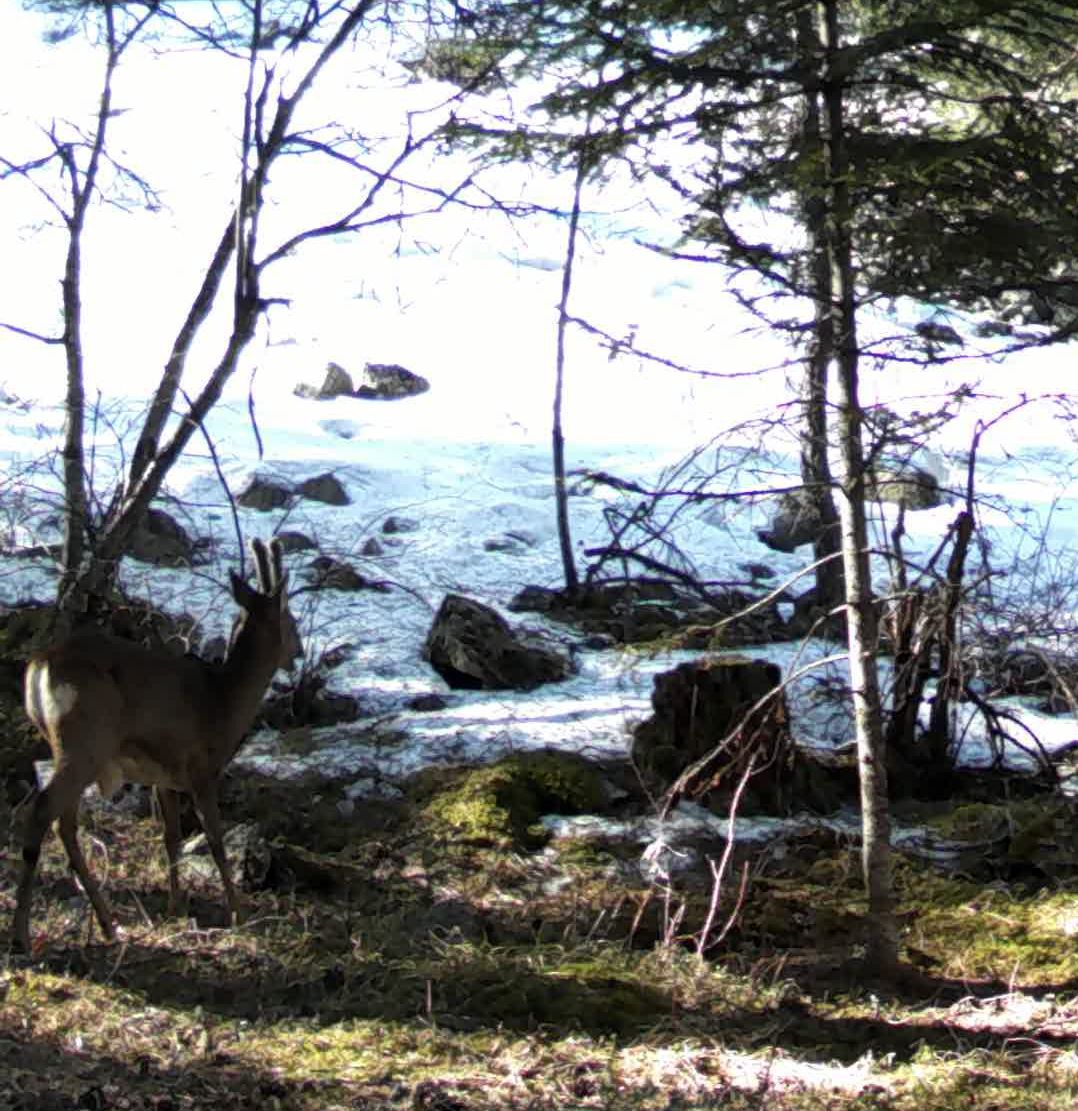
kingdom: Animalia
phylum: Chordata
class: Mammalia
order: Artiodactyla
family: Cervidae
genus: Capreolus
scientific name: Capreolus capreolus
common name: Western roe deer
